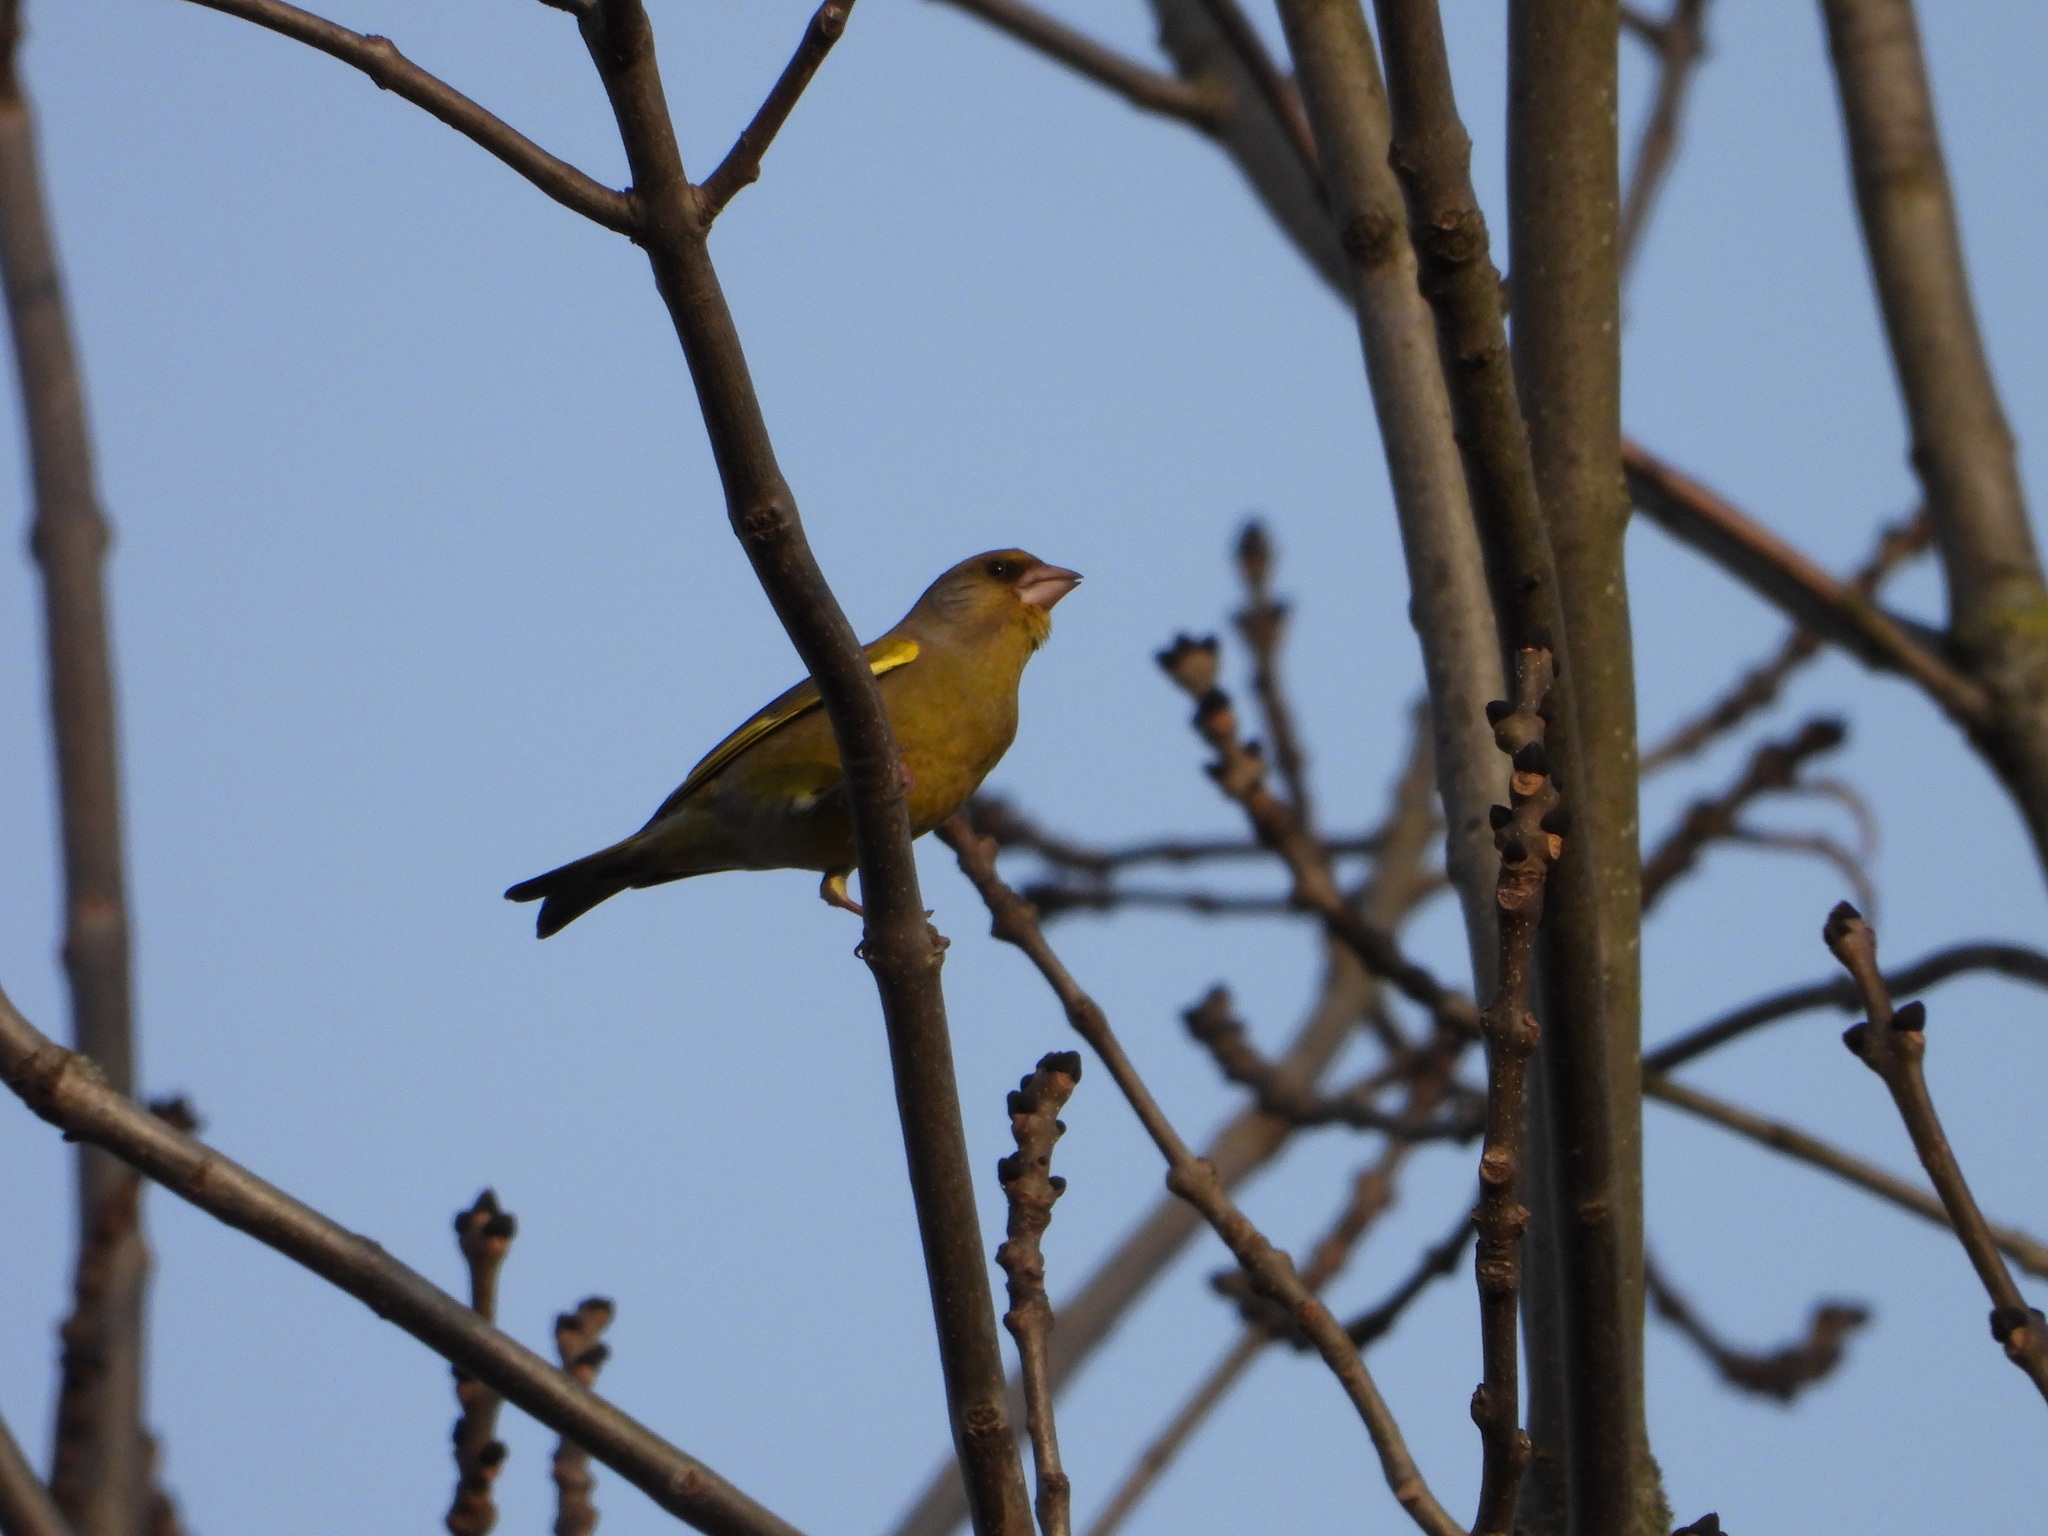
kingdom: Plantae
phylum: Tracheophyta
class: Liliopsida
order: Poales
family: Poaceae
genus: Chloris
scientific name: Chloris chloris
